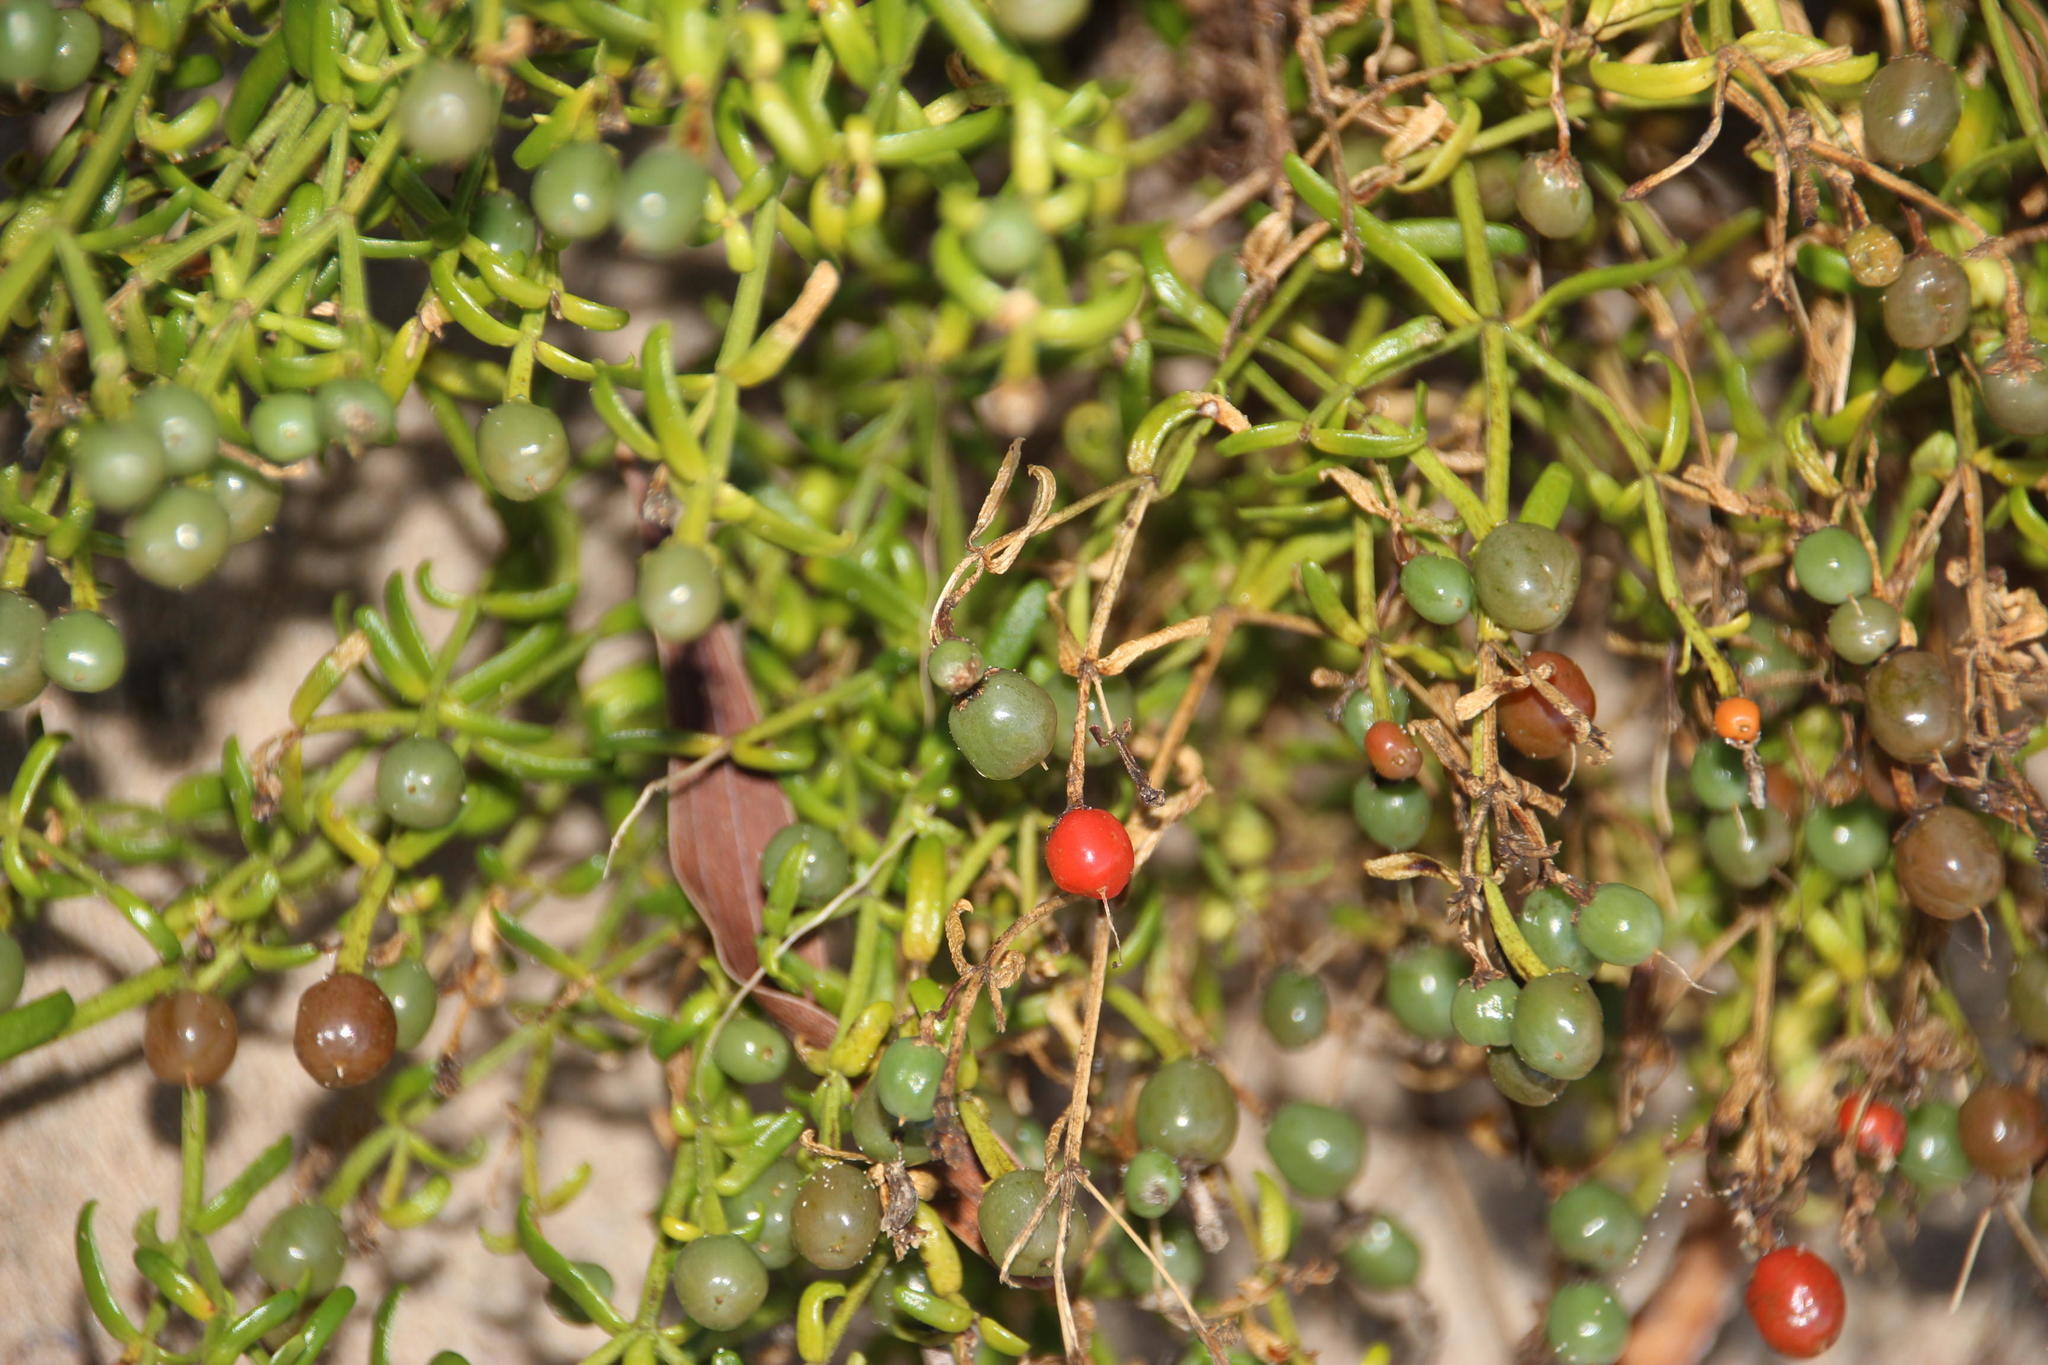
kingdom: Plantae
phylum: Tracheophyta
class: Magnoliopsida
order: Gentianales
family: Gentianaceae
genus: Chironia
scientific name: Chironia baccifera
